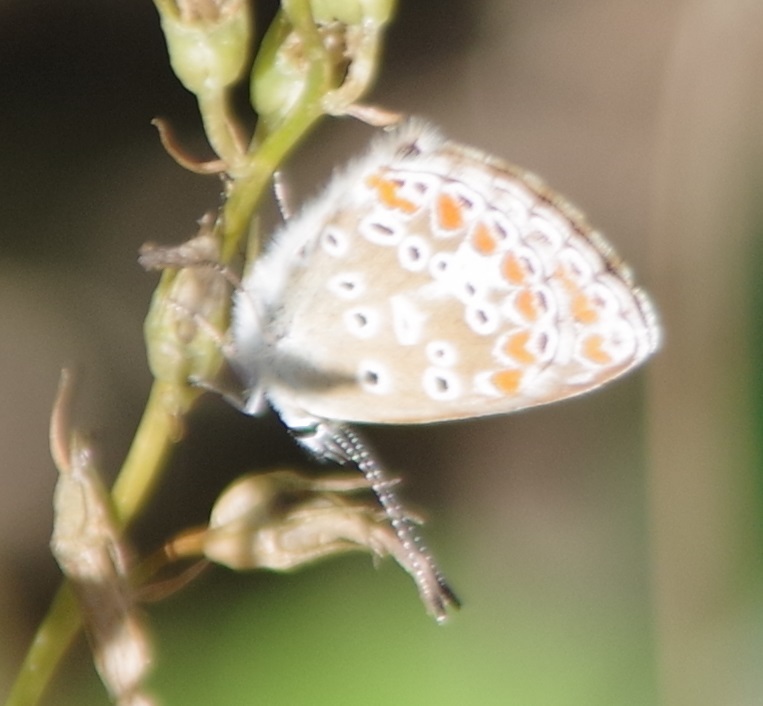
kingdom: Animalia
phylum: Arthropoda
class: Insecta
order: Lepidoptera
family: Lycaenidae
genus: Aricia
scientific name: Aricia agestis
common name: Brown argus
